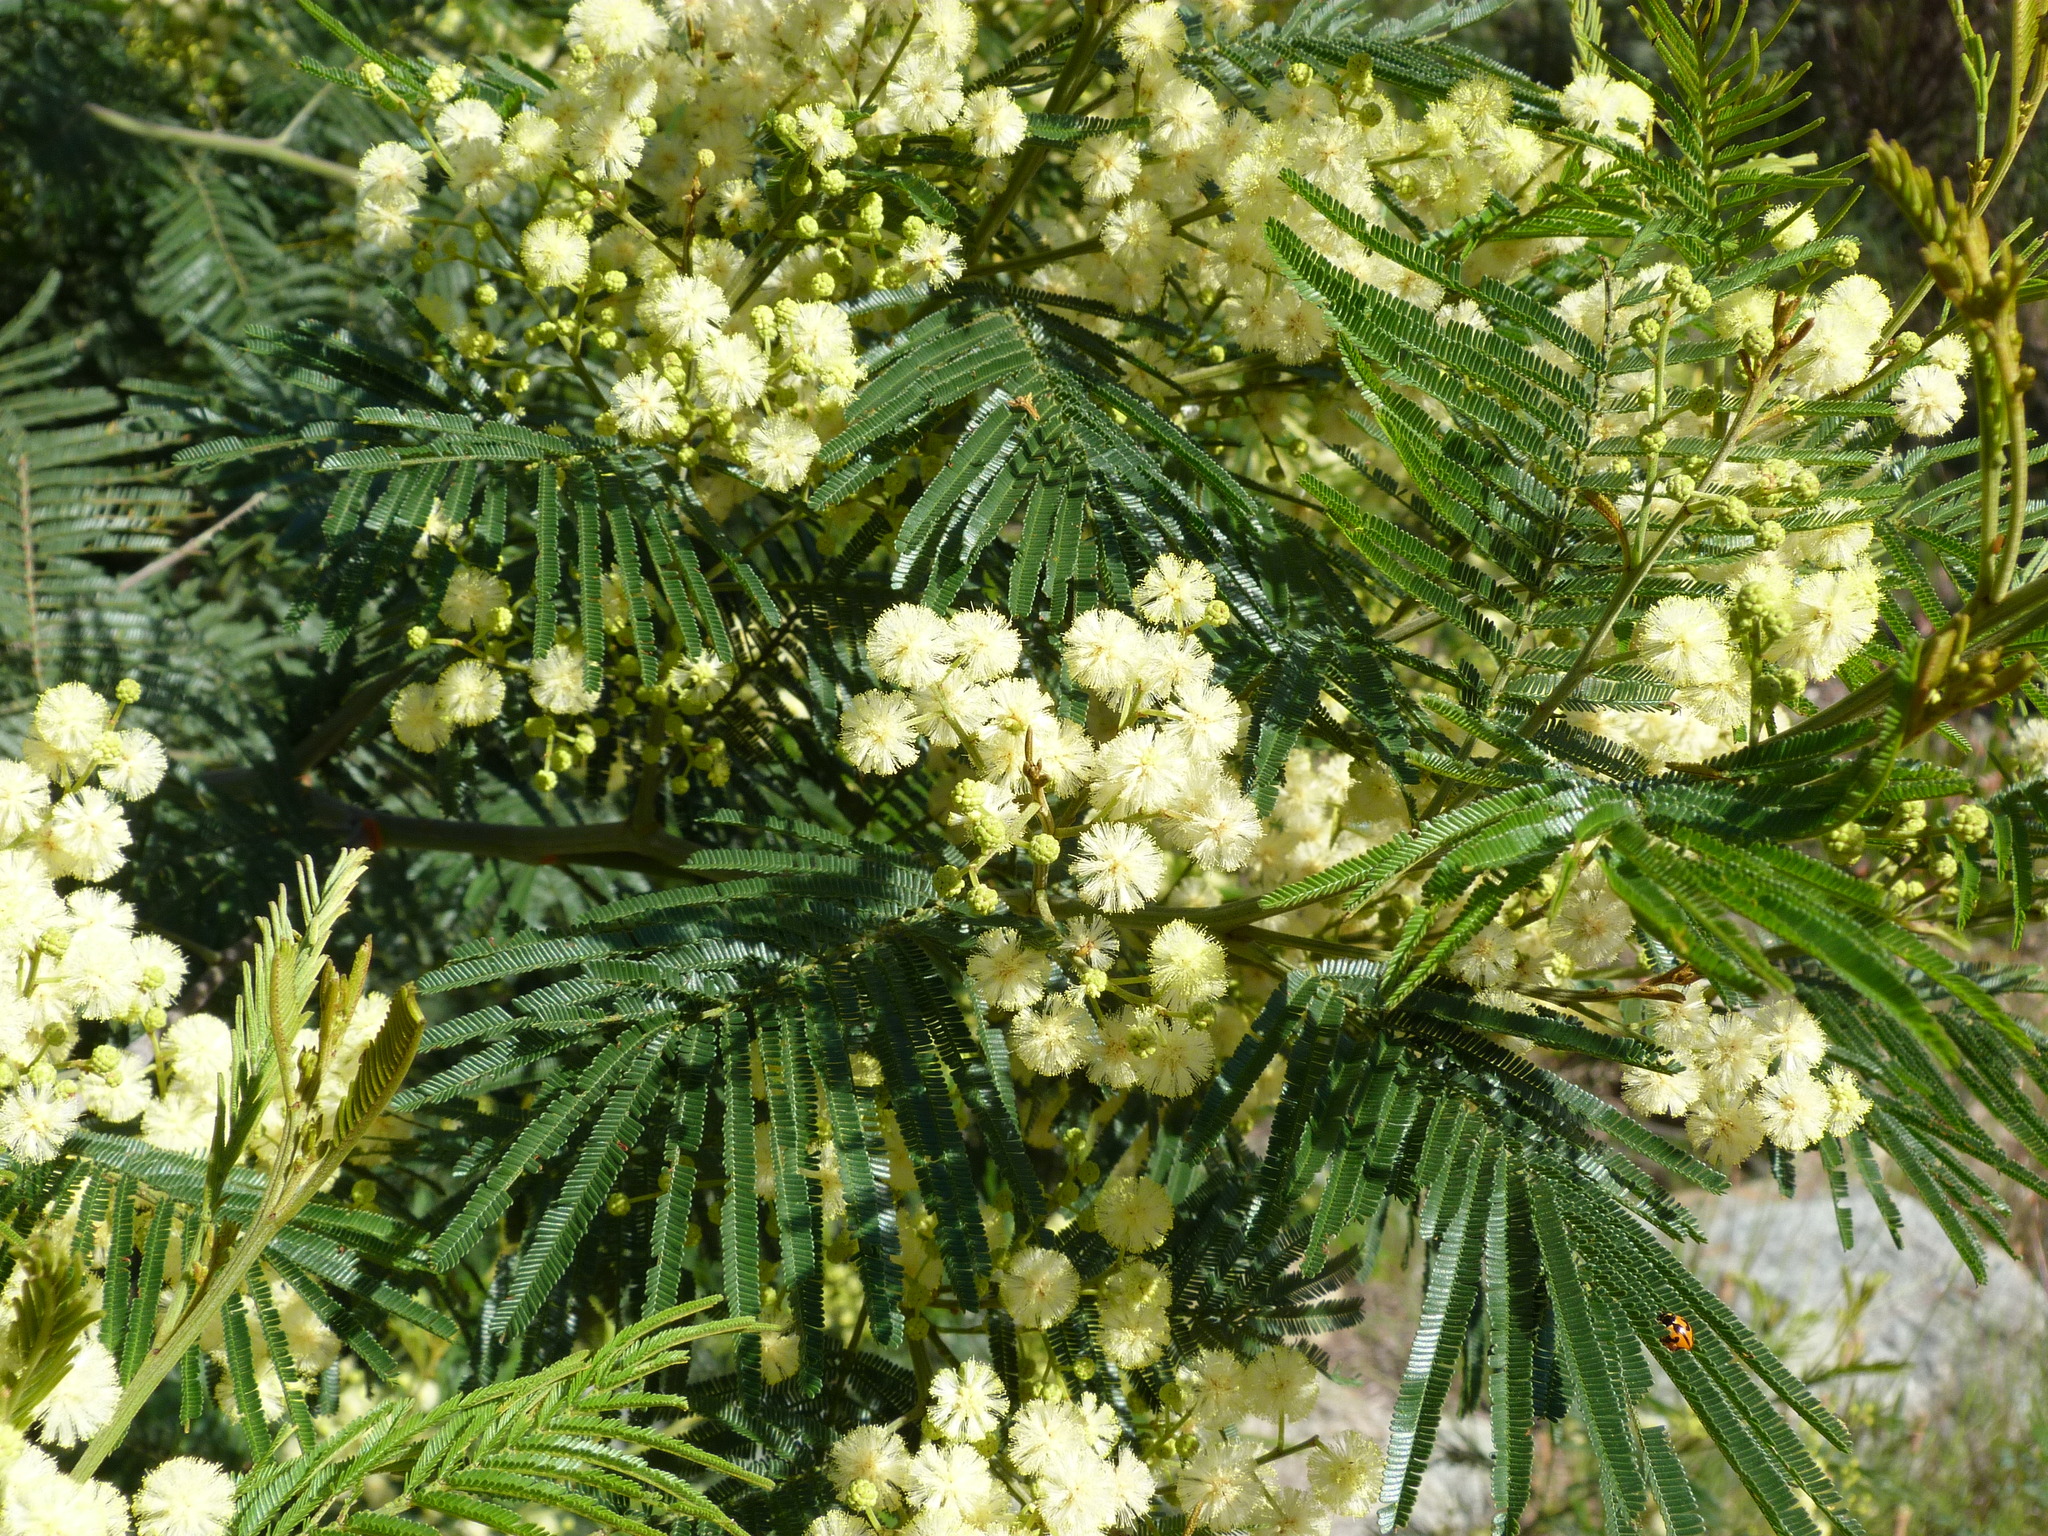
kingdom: Plantae
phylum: Tracheophyta
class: Magnoliopsida
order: Fabales
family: Fabaceae
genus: Acacia
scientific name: Acacia mearnsii
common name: Black wattle
